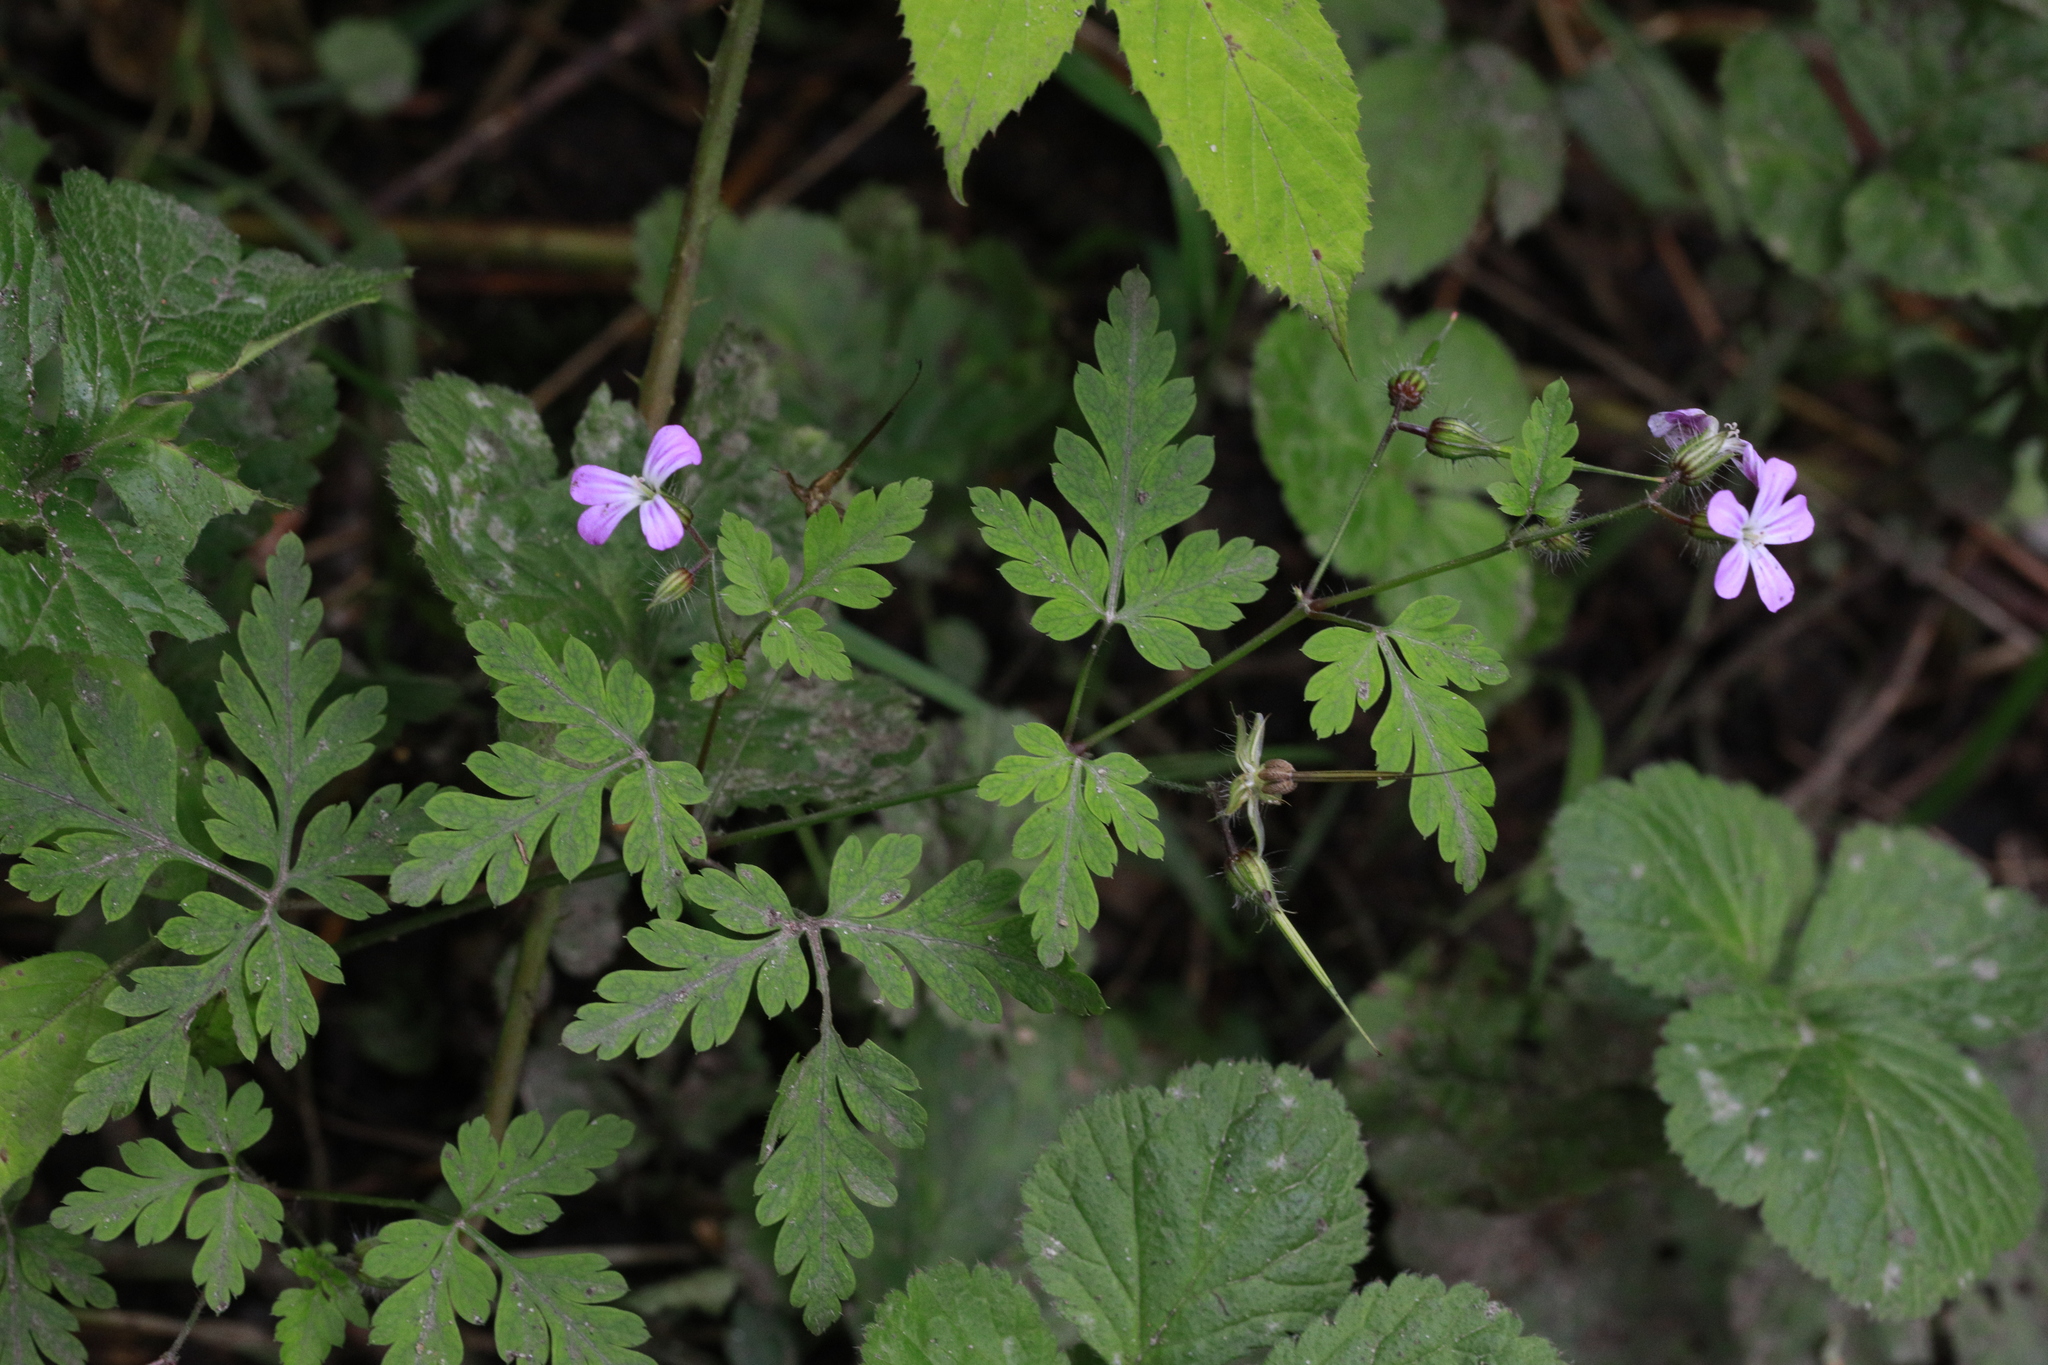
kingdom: Plantae
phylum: Tracheophyta
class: Magnoliopsida
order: Geraniales
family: Geraniaceae
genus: Geranium
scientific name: Geranium robertianum
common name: Herb-robert
